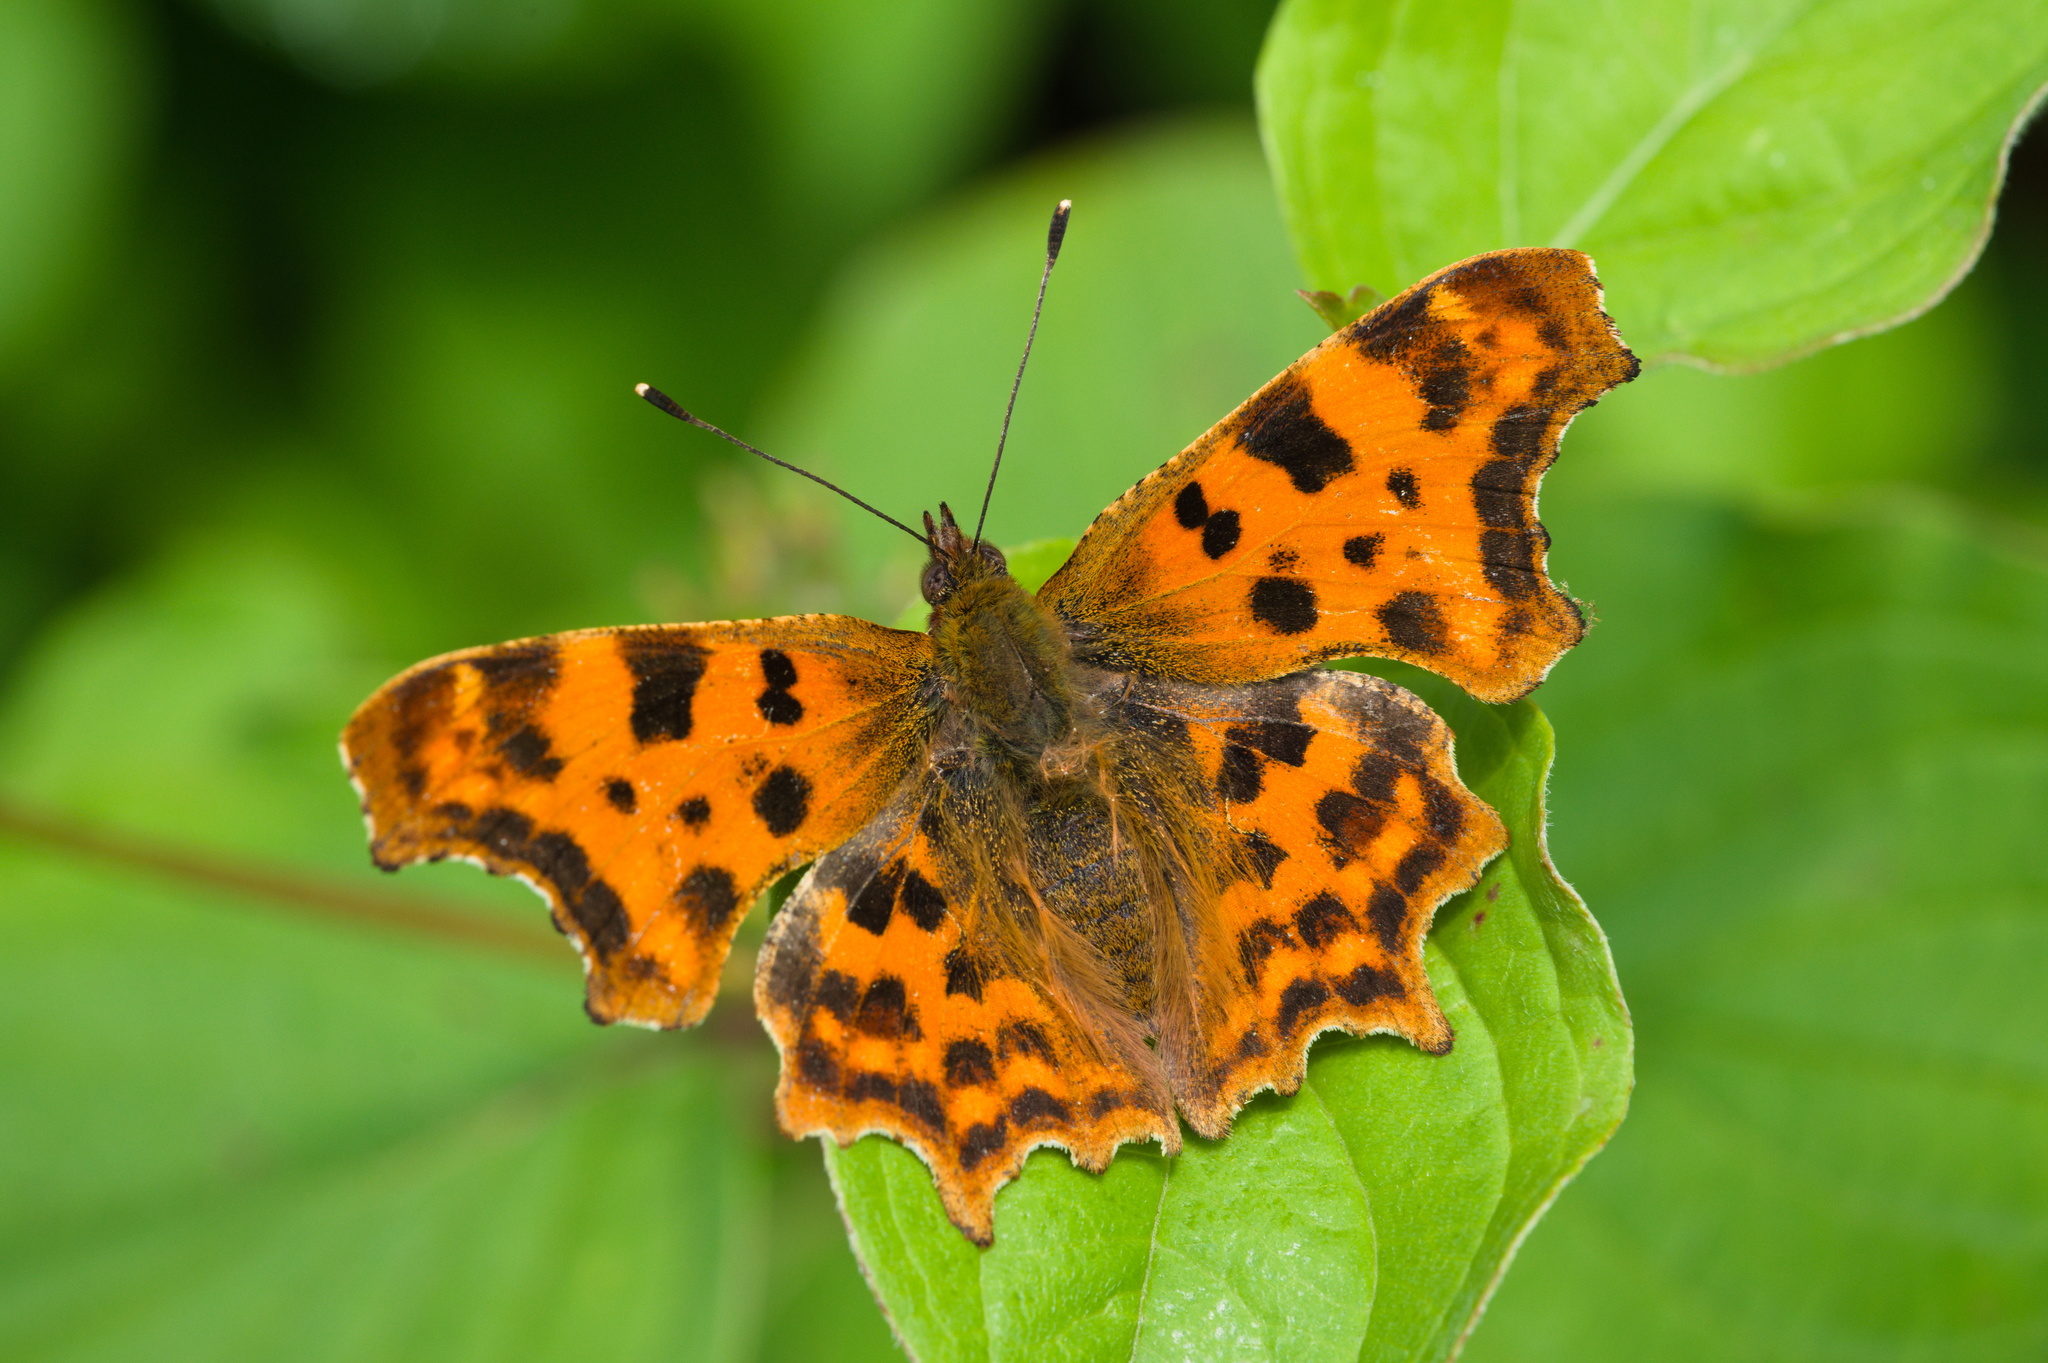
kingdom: Animalia
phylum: Arthropoda
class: Insecta
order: Lepidoptera
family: Nymphalidae
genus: Polygonia
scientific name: Polygonia c-album
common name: Comma
